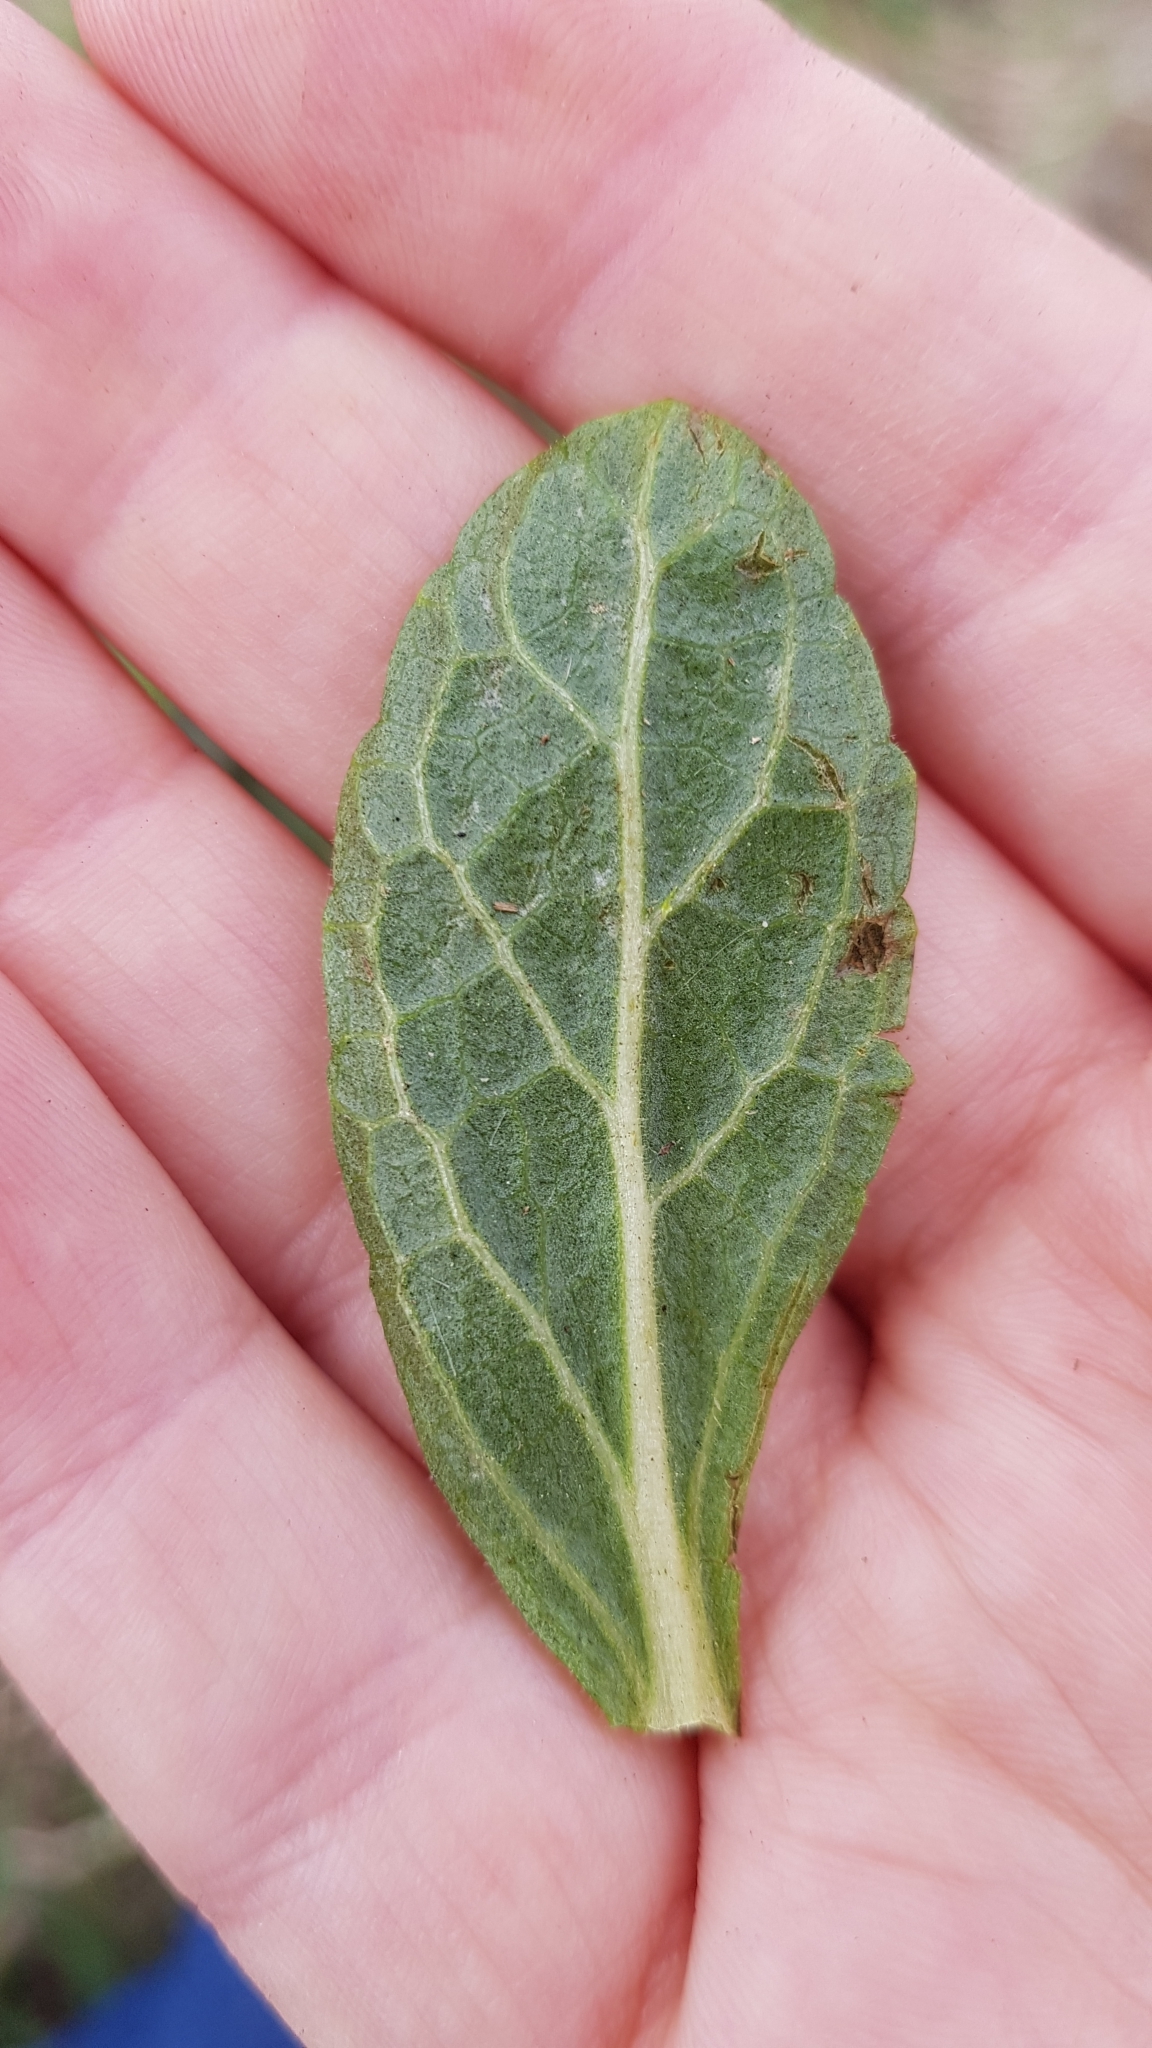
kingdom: Plantae
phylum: Tracheophyta
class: Magnoliopsida
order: Lamiales
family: Scrophulariaceae
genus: Verbascum
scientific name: Verbascum virgatum
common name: Twiggy mullein
